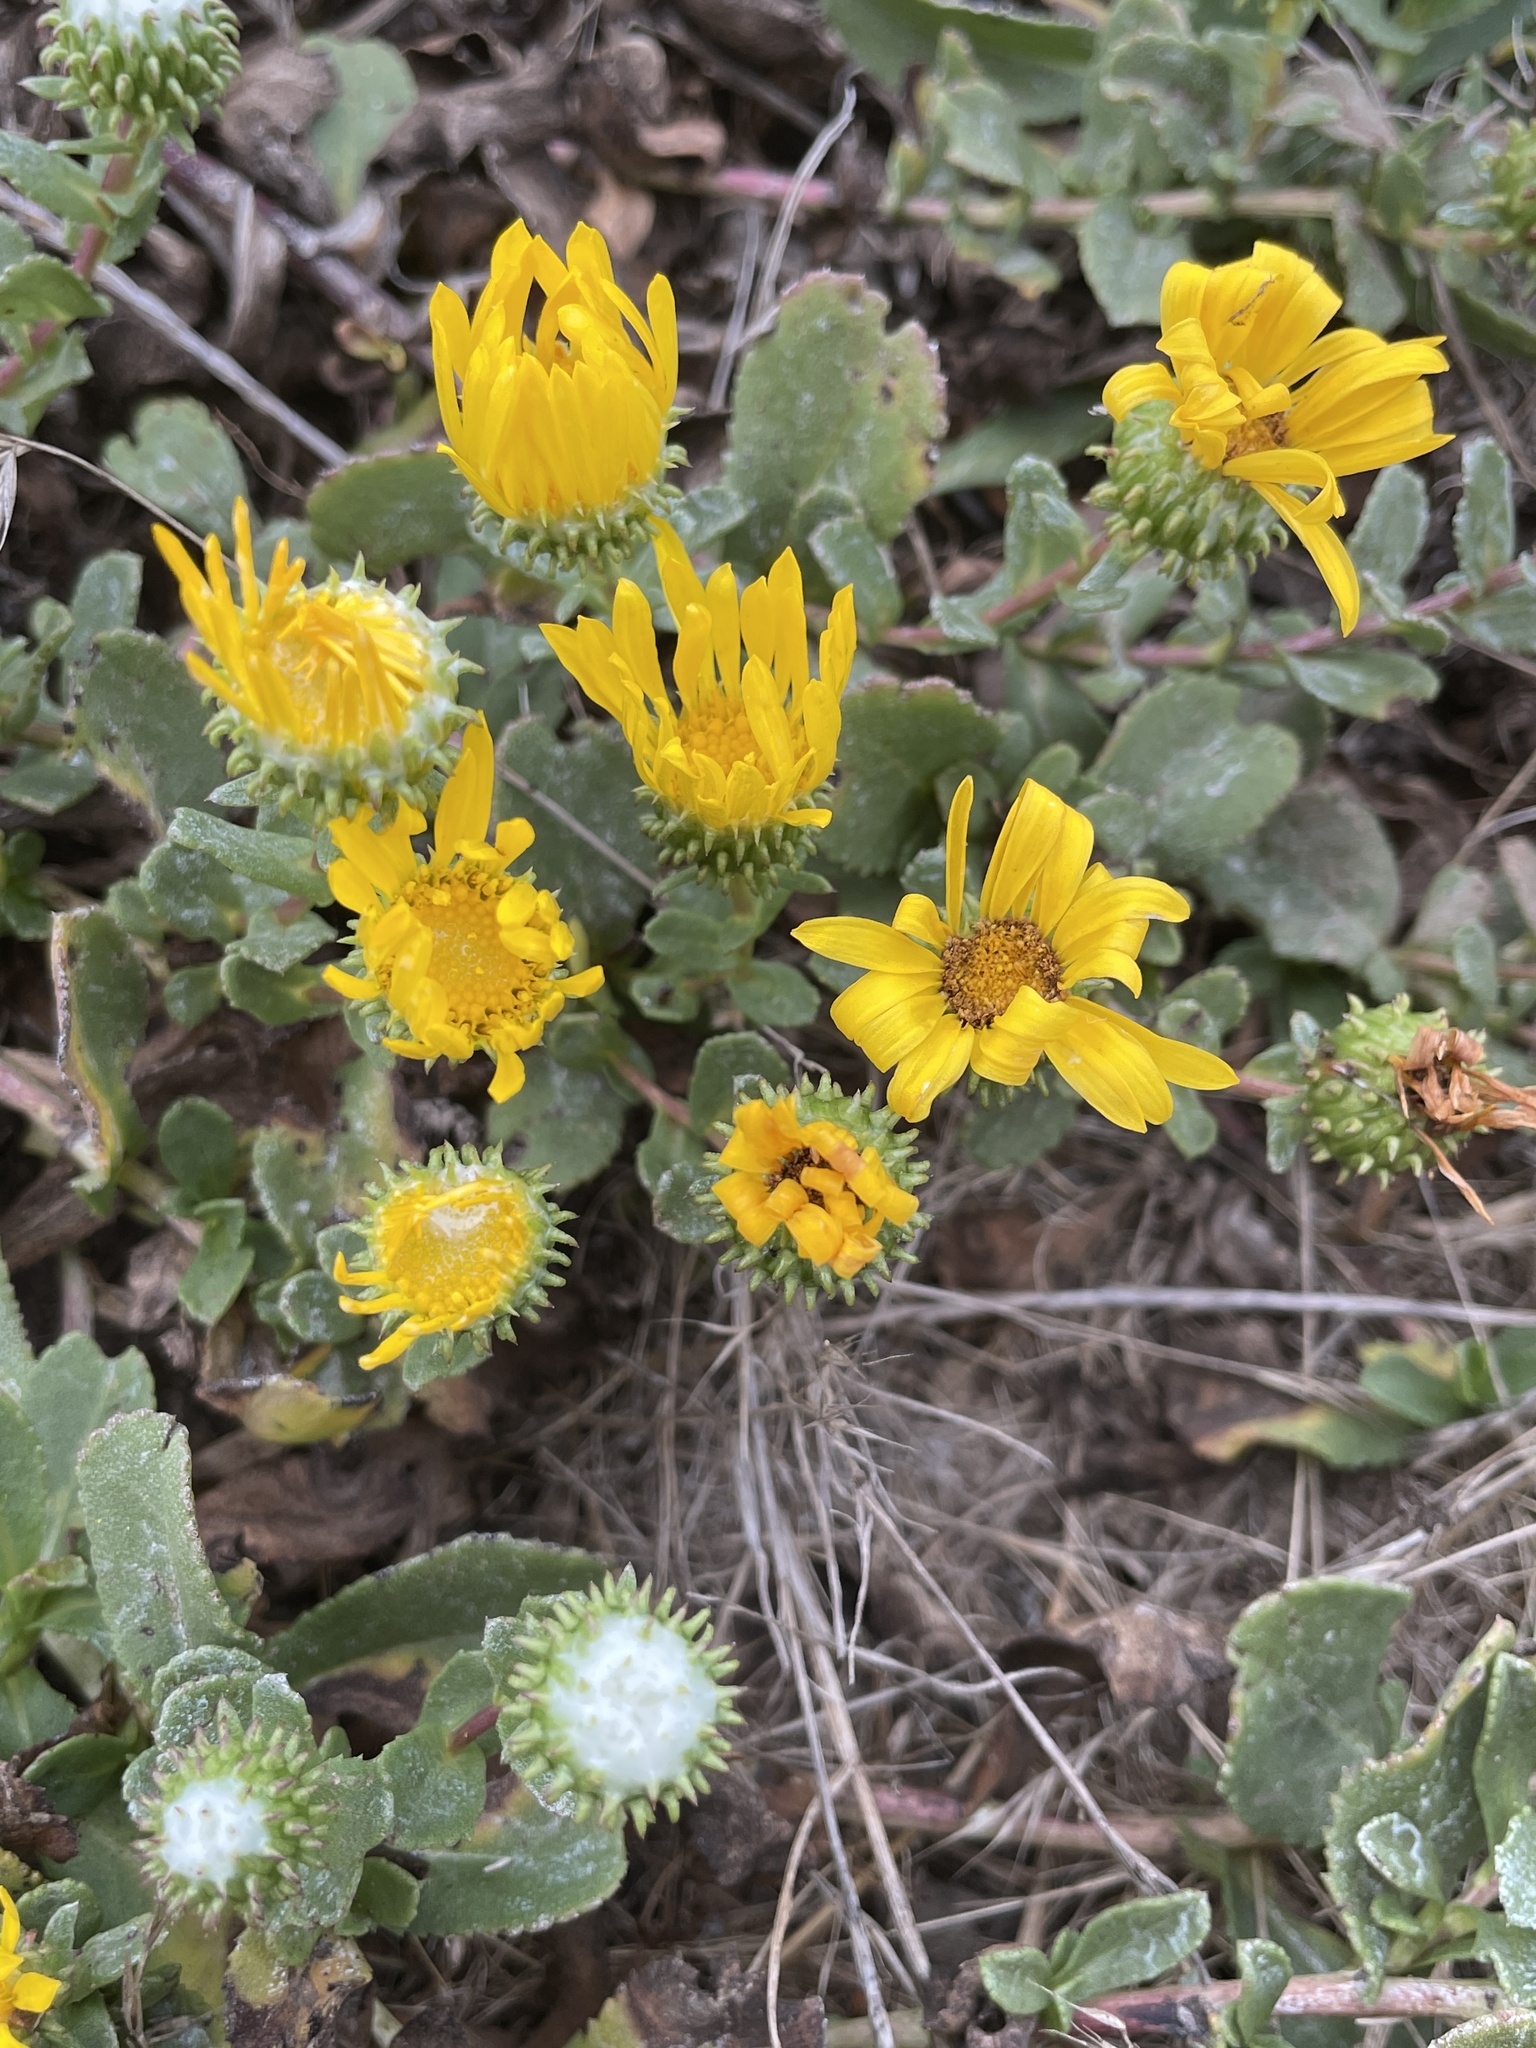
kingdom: Plantae
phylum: Tracheophyta
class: Magnoliopsida
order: Asterales
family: Asteraceae
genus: Grindelia
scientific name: Grindelia hirsutula
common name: Hairy gumweed
